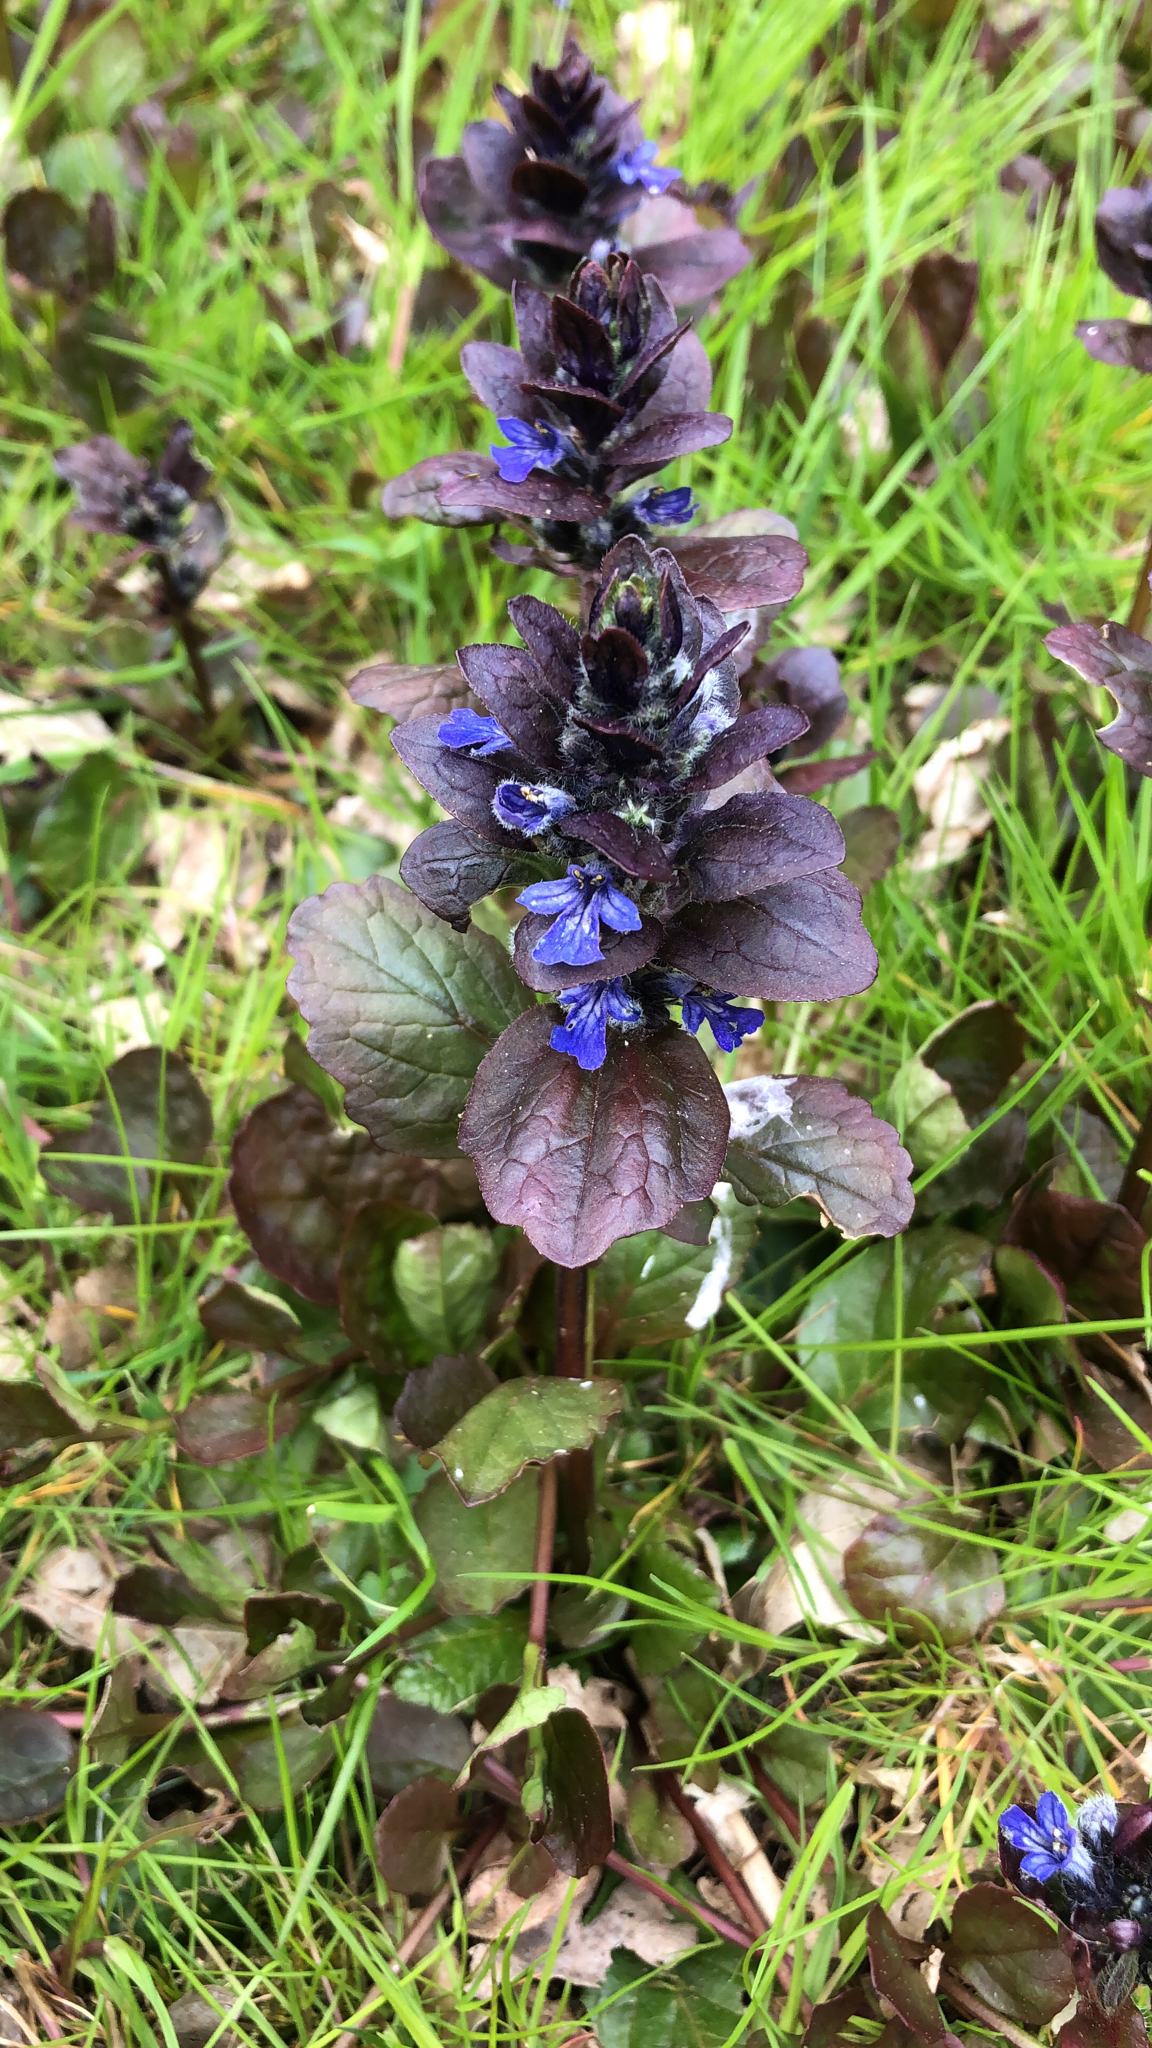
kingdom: Plantae
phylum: Tracheophyta
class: Magnoliopsida
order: Lamiales
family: Lamiaceae
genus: Ajuga
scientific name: Ajuga reptans
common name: Bugle
